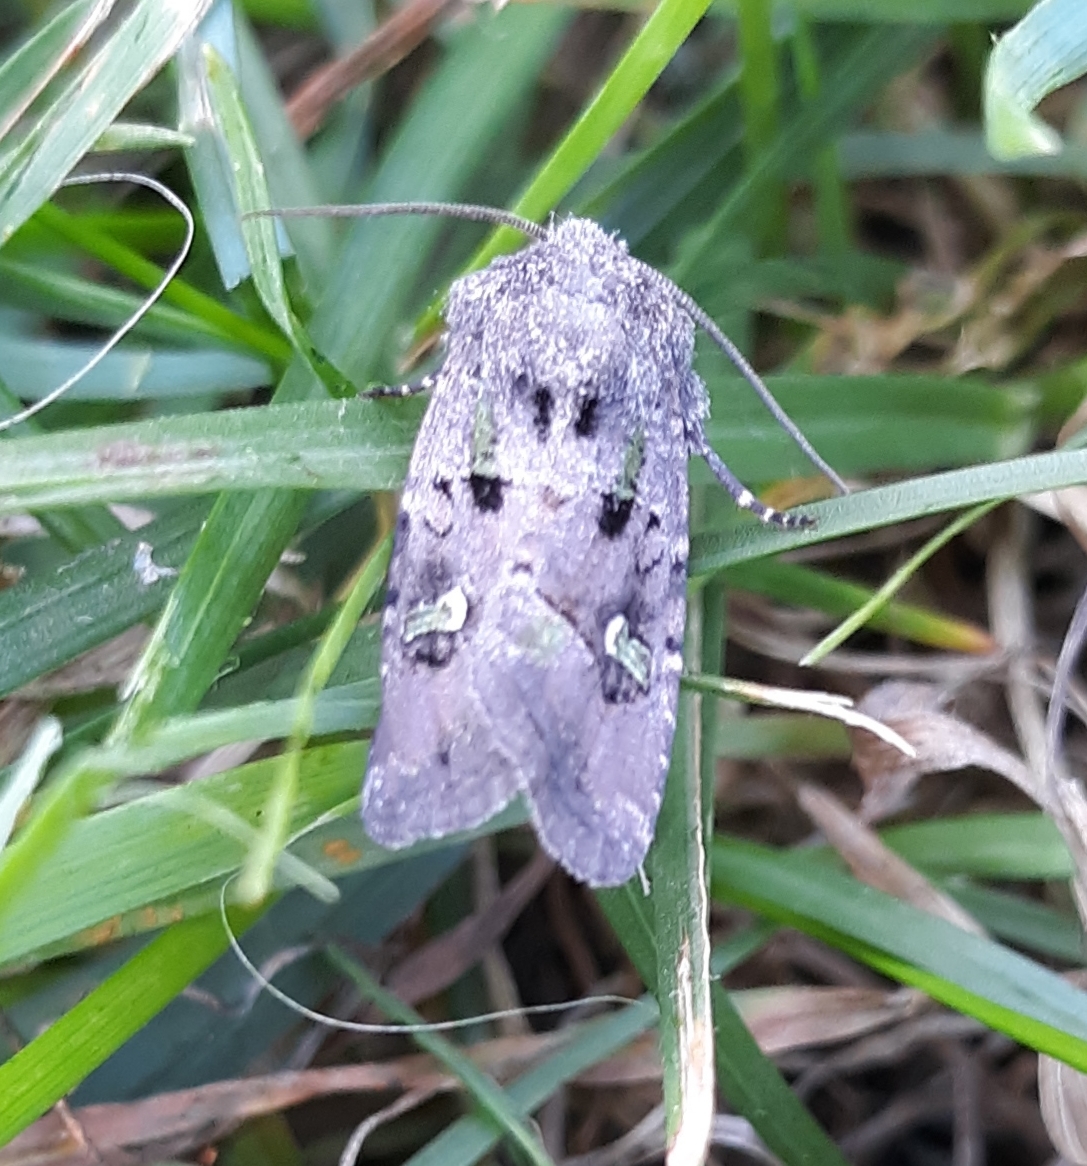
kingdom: Animalia
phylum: Arthropoda
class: Insecta
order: Lepidoptera
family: Noctuidae
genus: Lacinipolia
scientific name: Lacinipolia renigera
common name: Kidney-spotted minor
